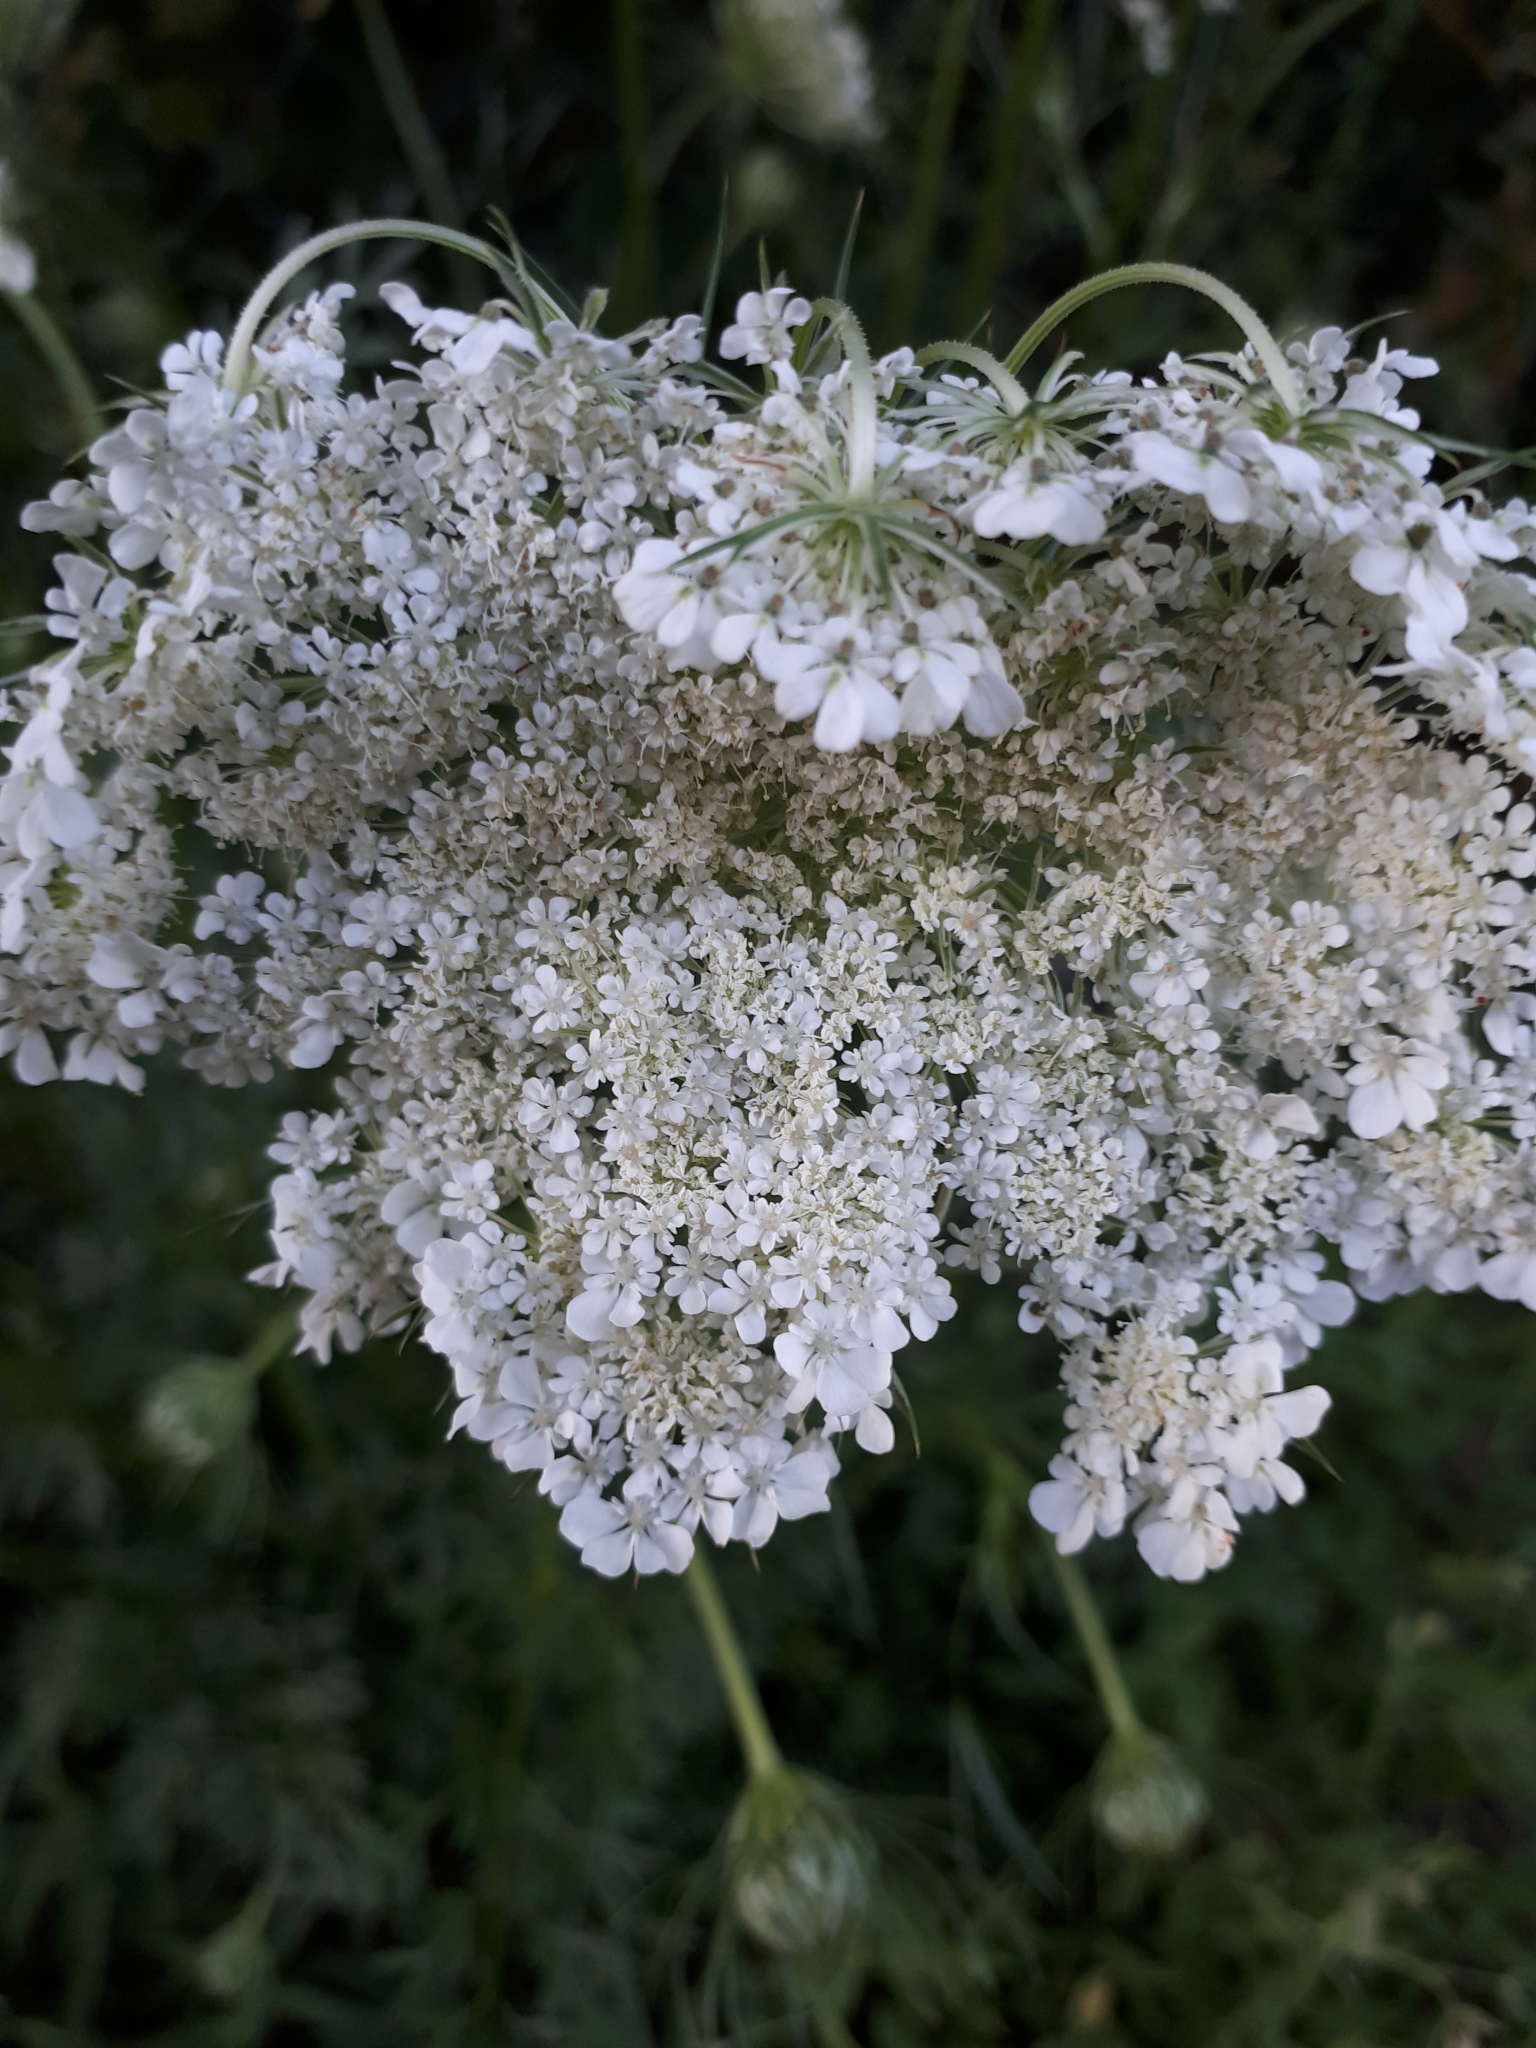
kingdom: Plantae
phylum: Tracheophyta
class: Magnoliopsida
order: Apiales
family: Apiaceae
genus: Daucus
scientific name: Daucus carota
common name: Wild carrot
